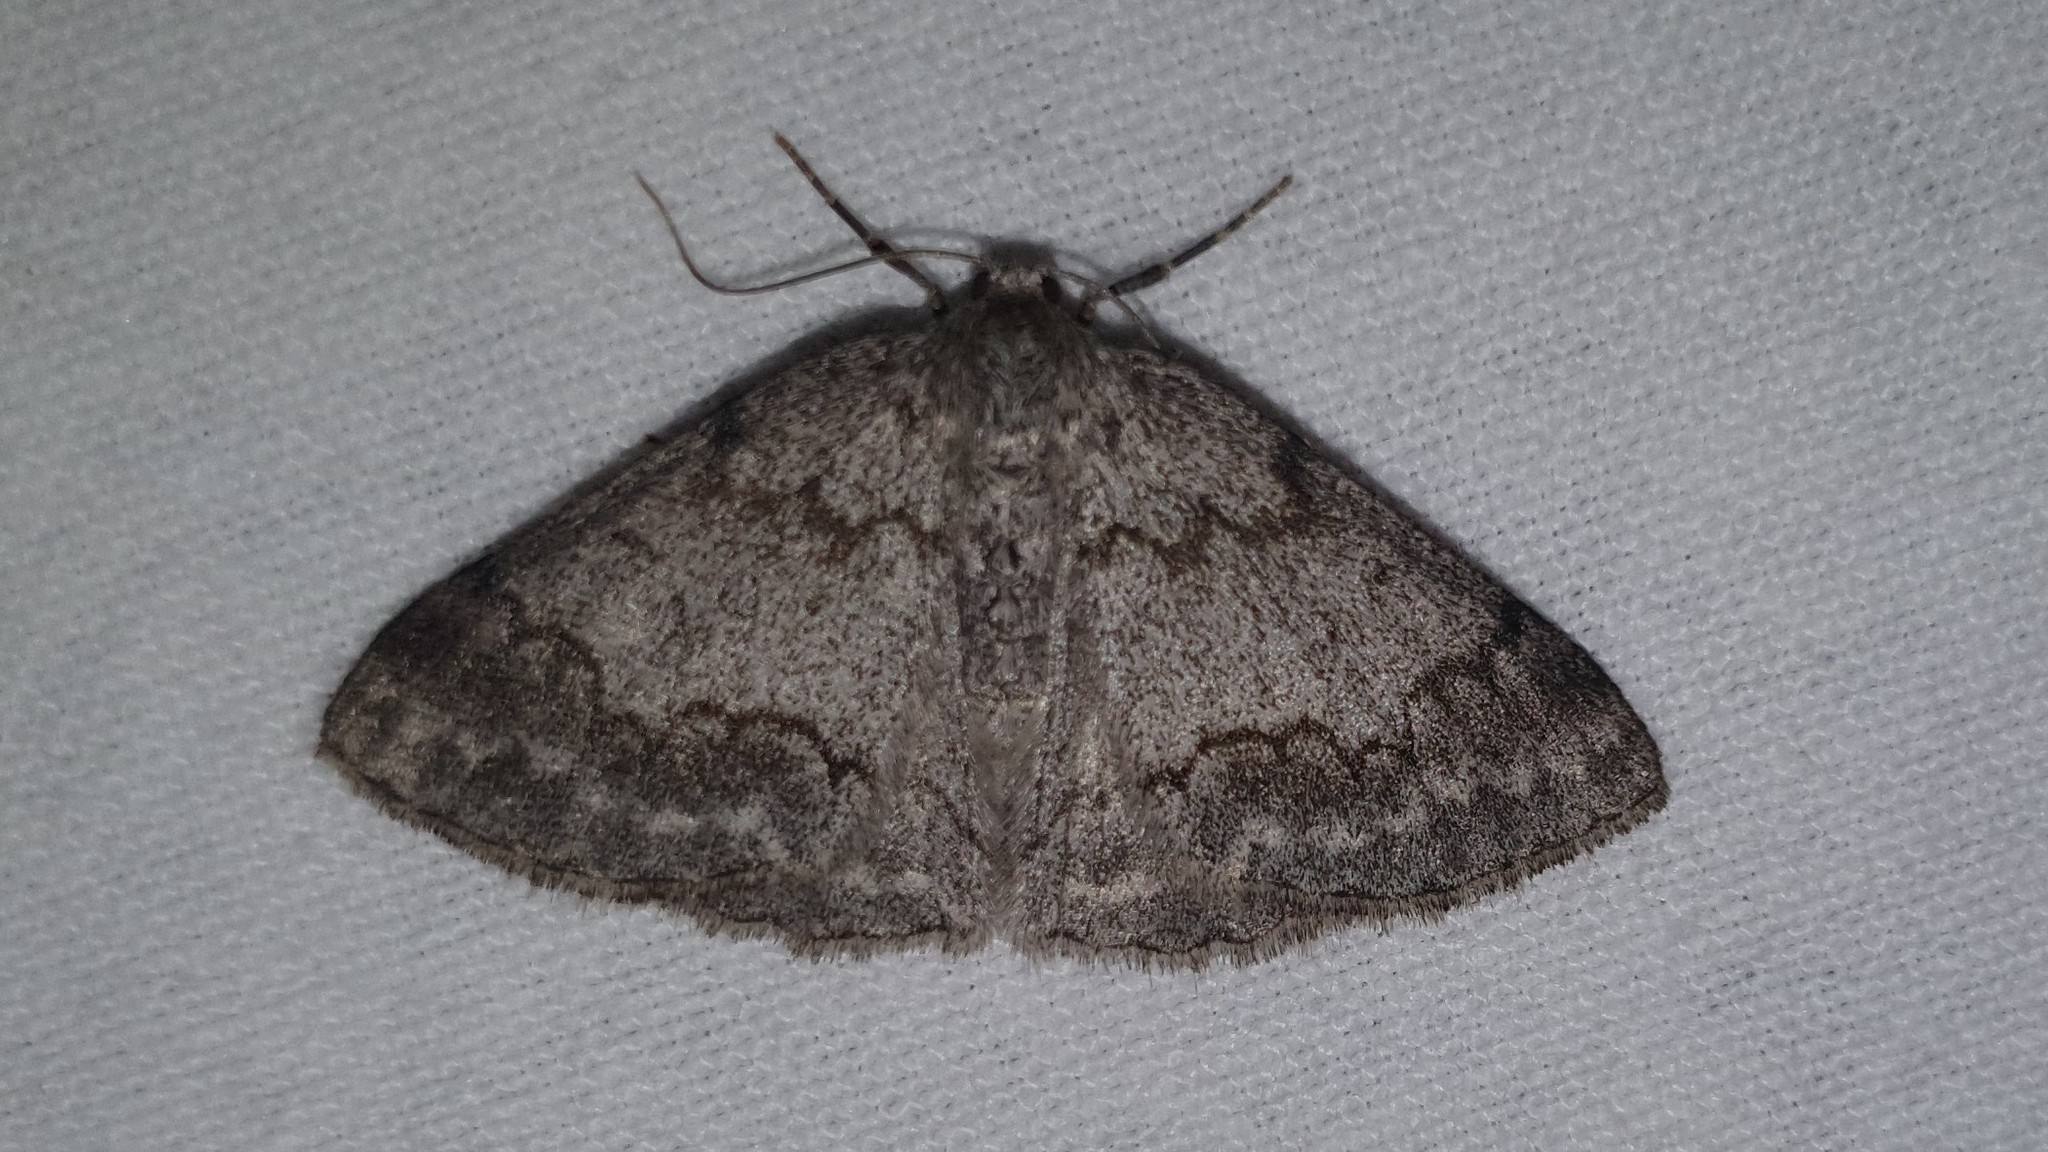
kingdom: Animalia
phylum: Arthropoda
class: Insecta
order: Lepidoptera
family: Geometridae
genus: Pseudoterpna
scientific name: Pseudoterpna coronillaria
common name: Jersey emerald
